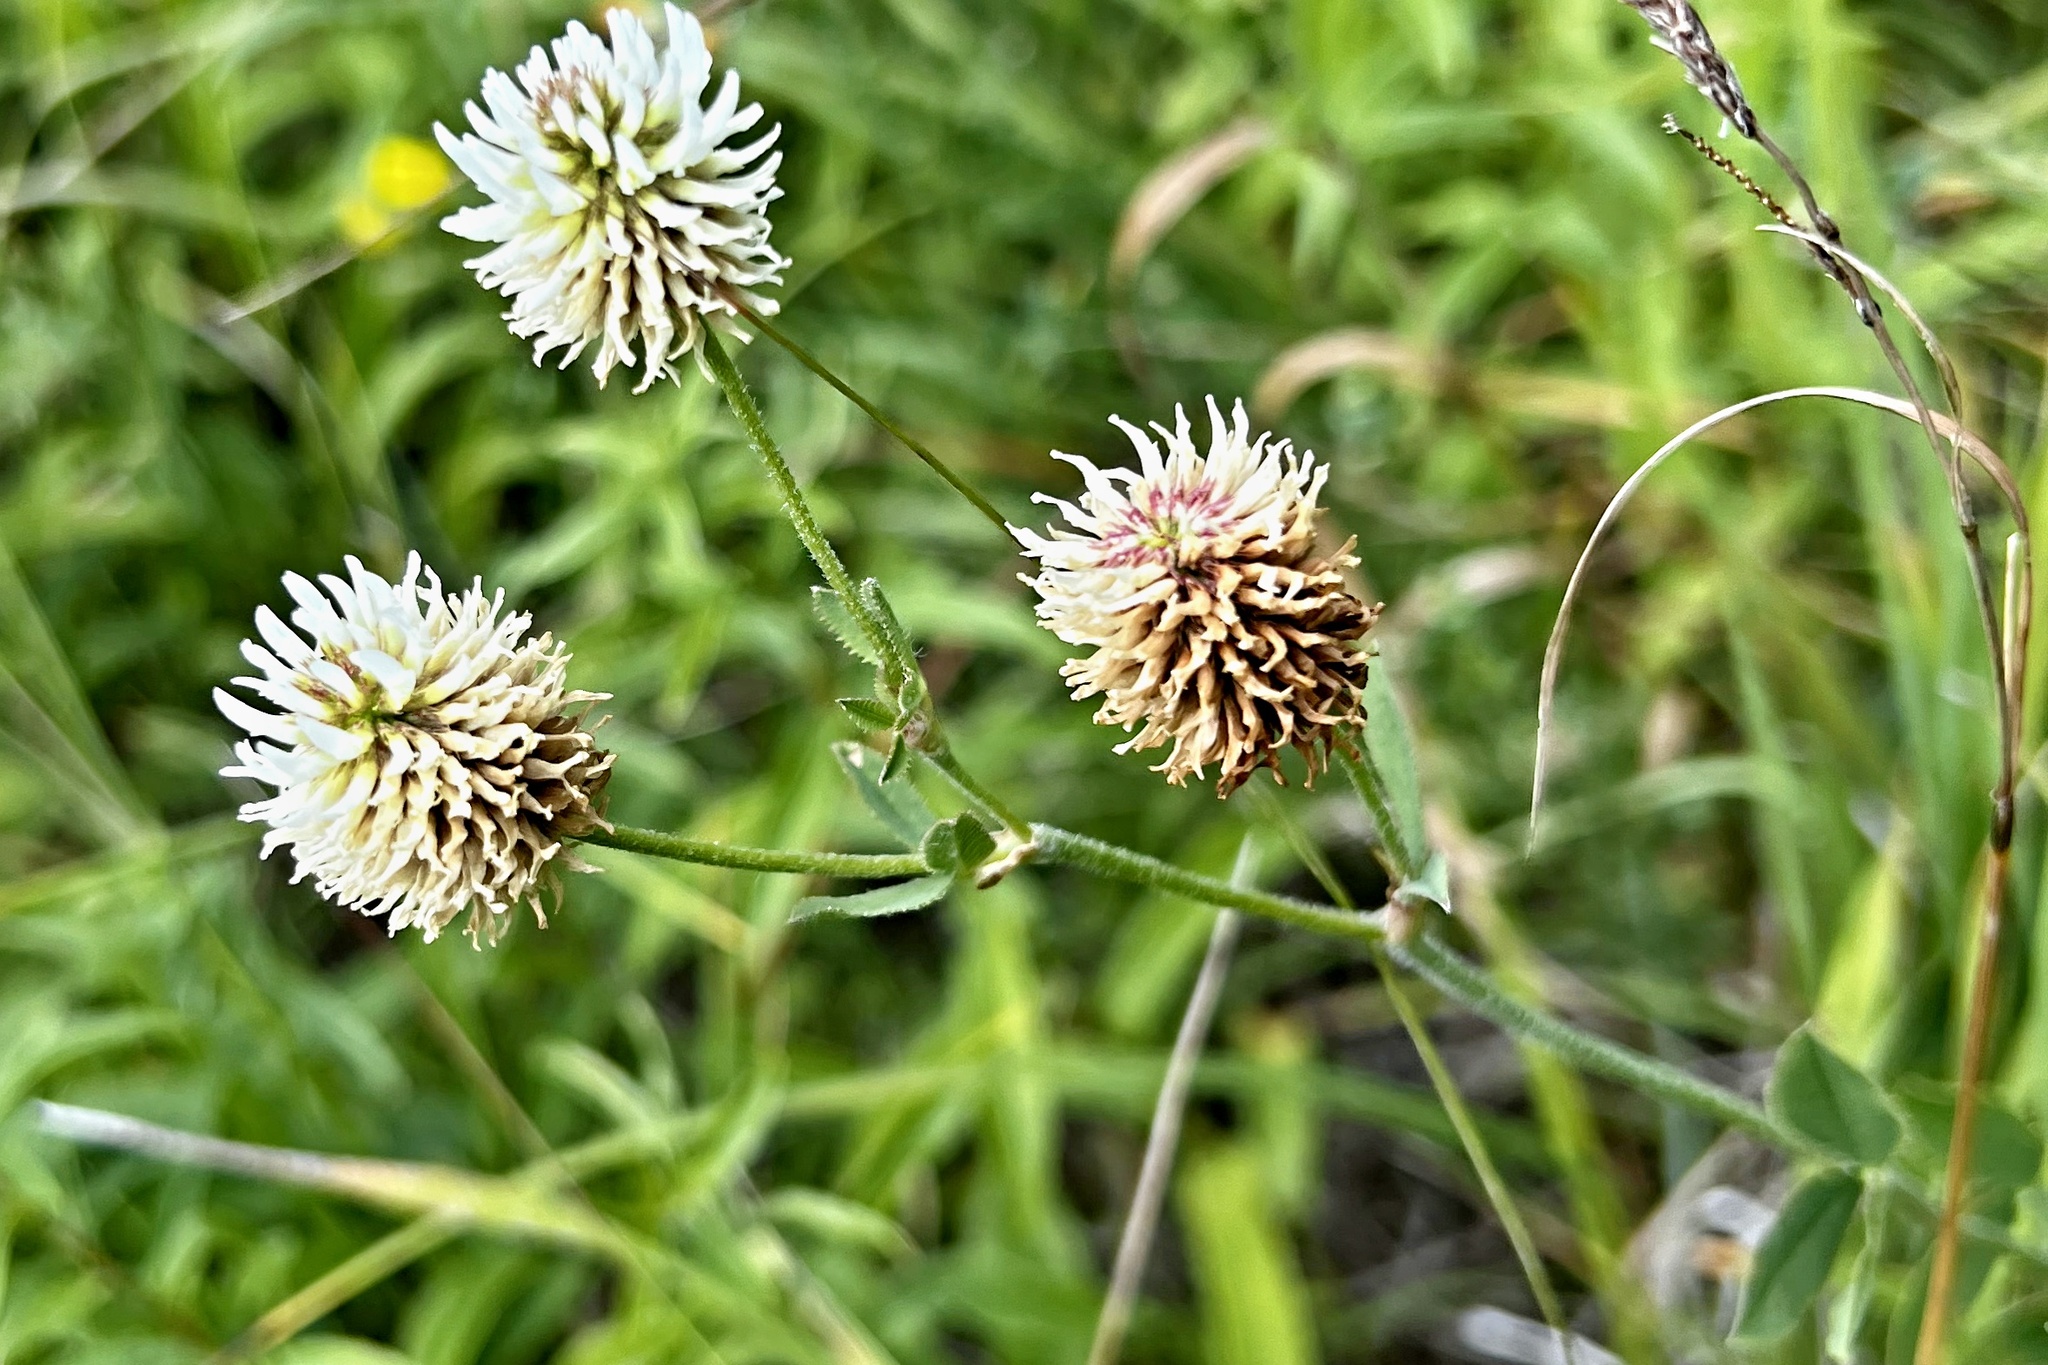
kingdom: Plantae
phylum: Tracheophyta
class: Magnoliopsida
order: Fabales
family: Fabaceae
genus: Trifolium
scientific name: Trifolium montanum
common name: Mountain clover
